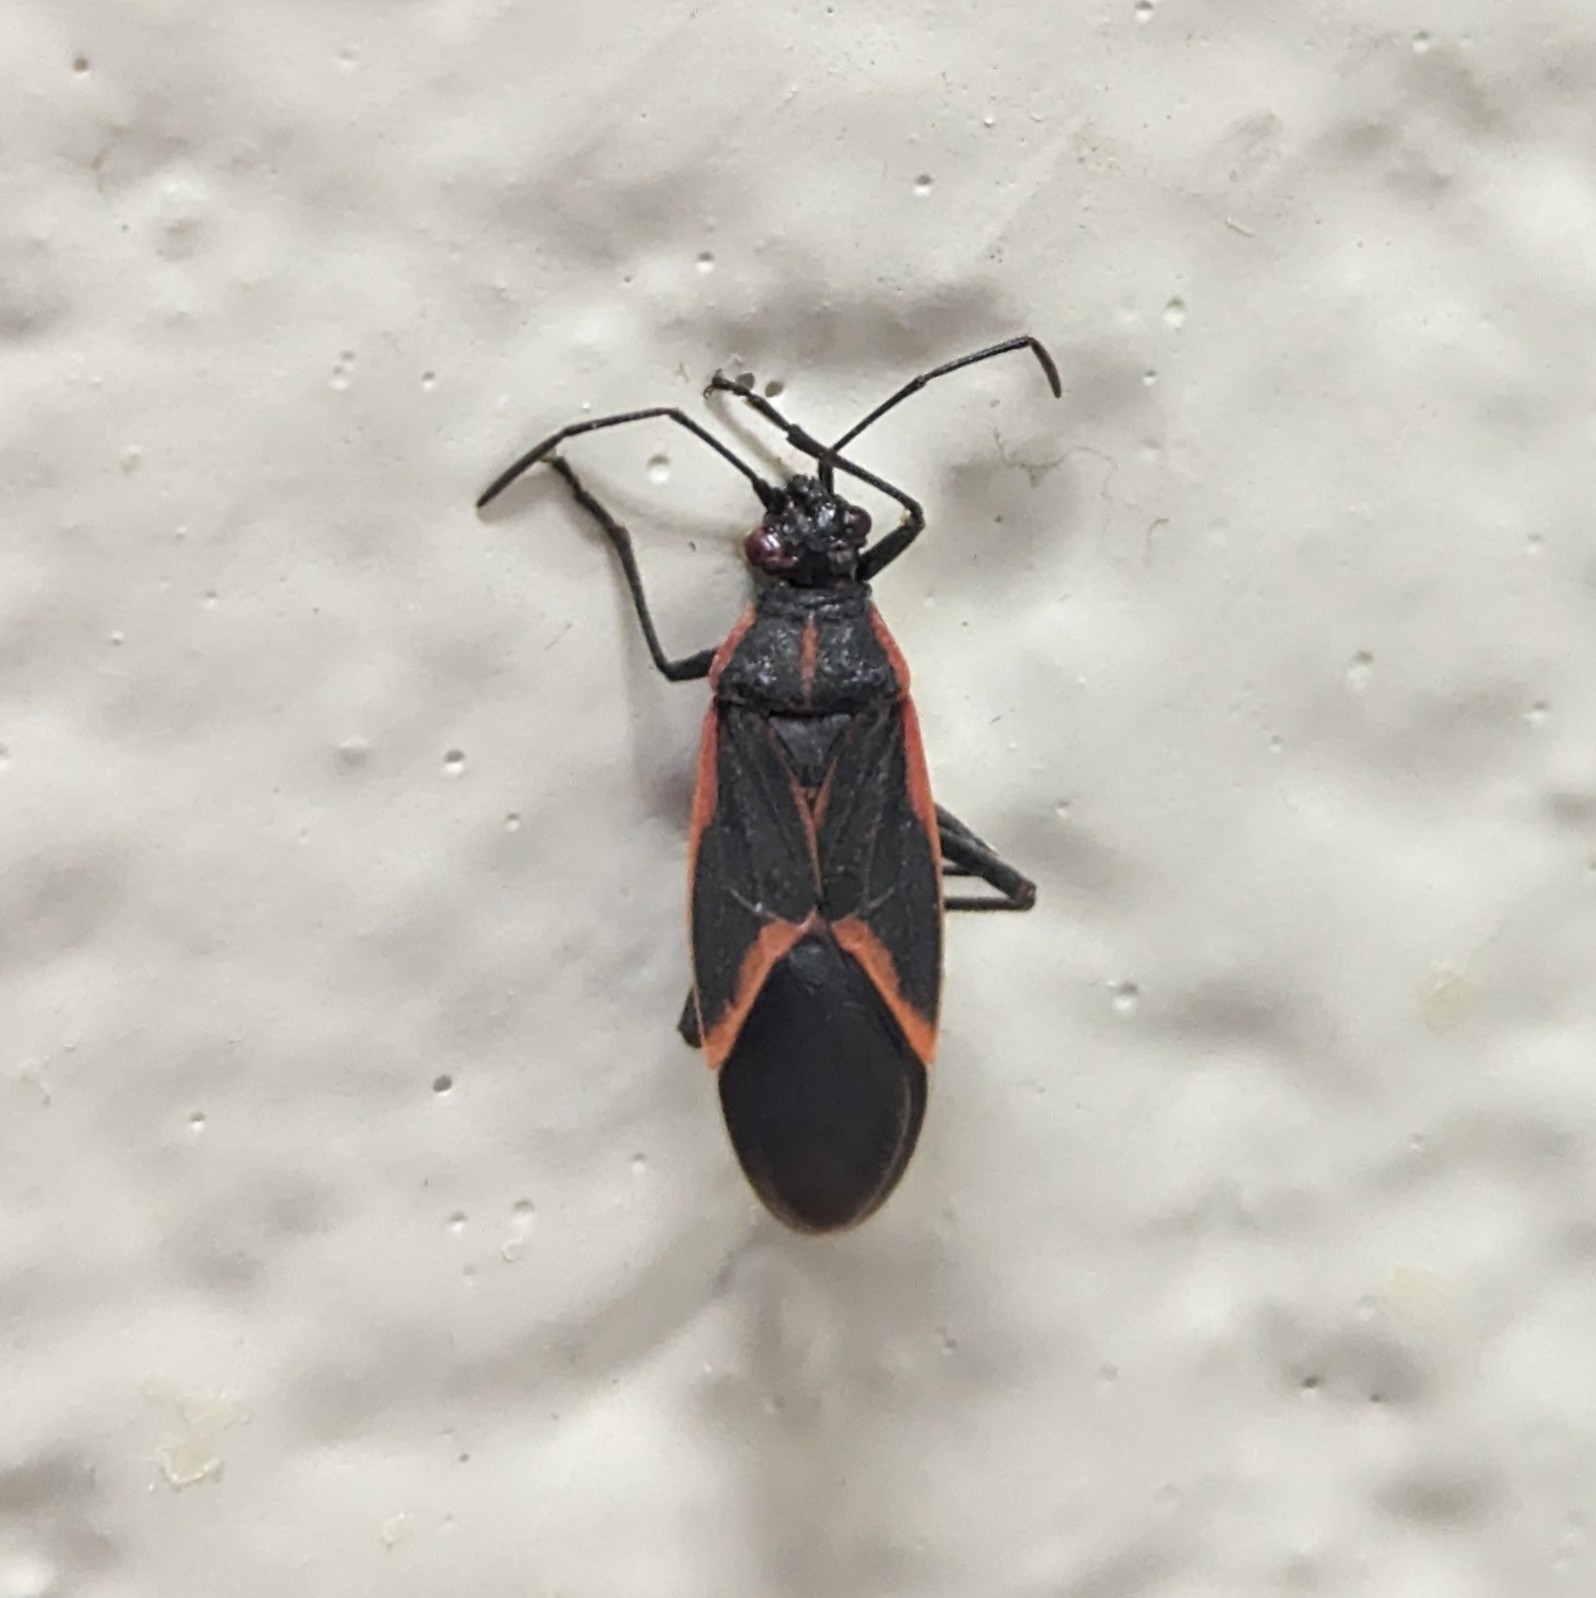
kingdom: Animalia
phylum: Arthropoda
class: Insecta
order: Hemiptera
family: Rhopalidae
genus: Boisea
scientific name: Boisea trivittata
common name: Boxelder bug
